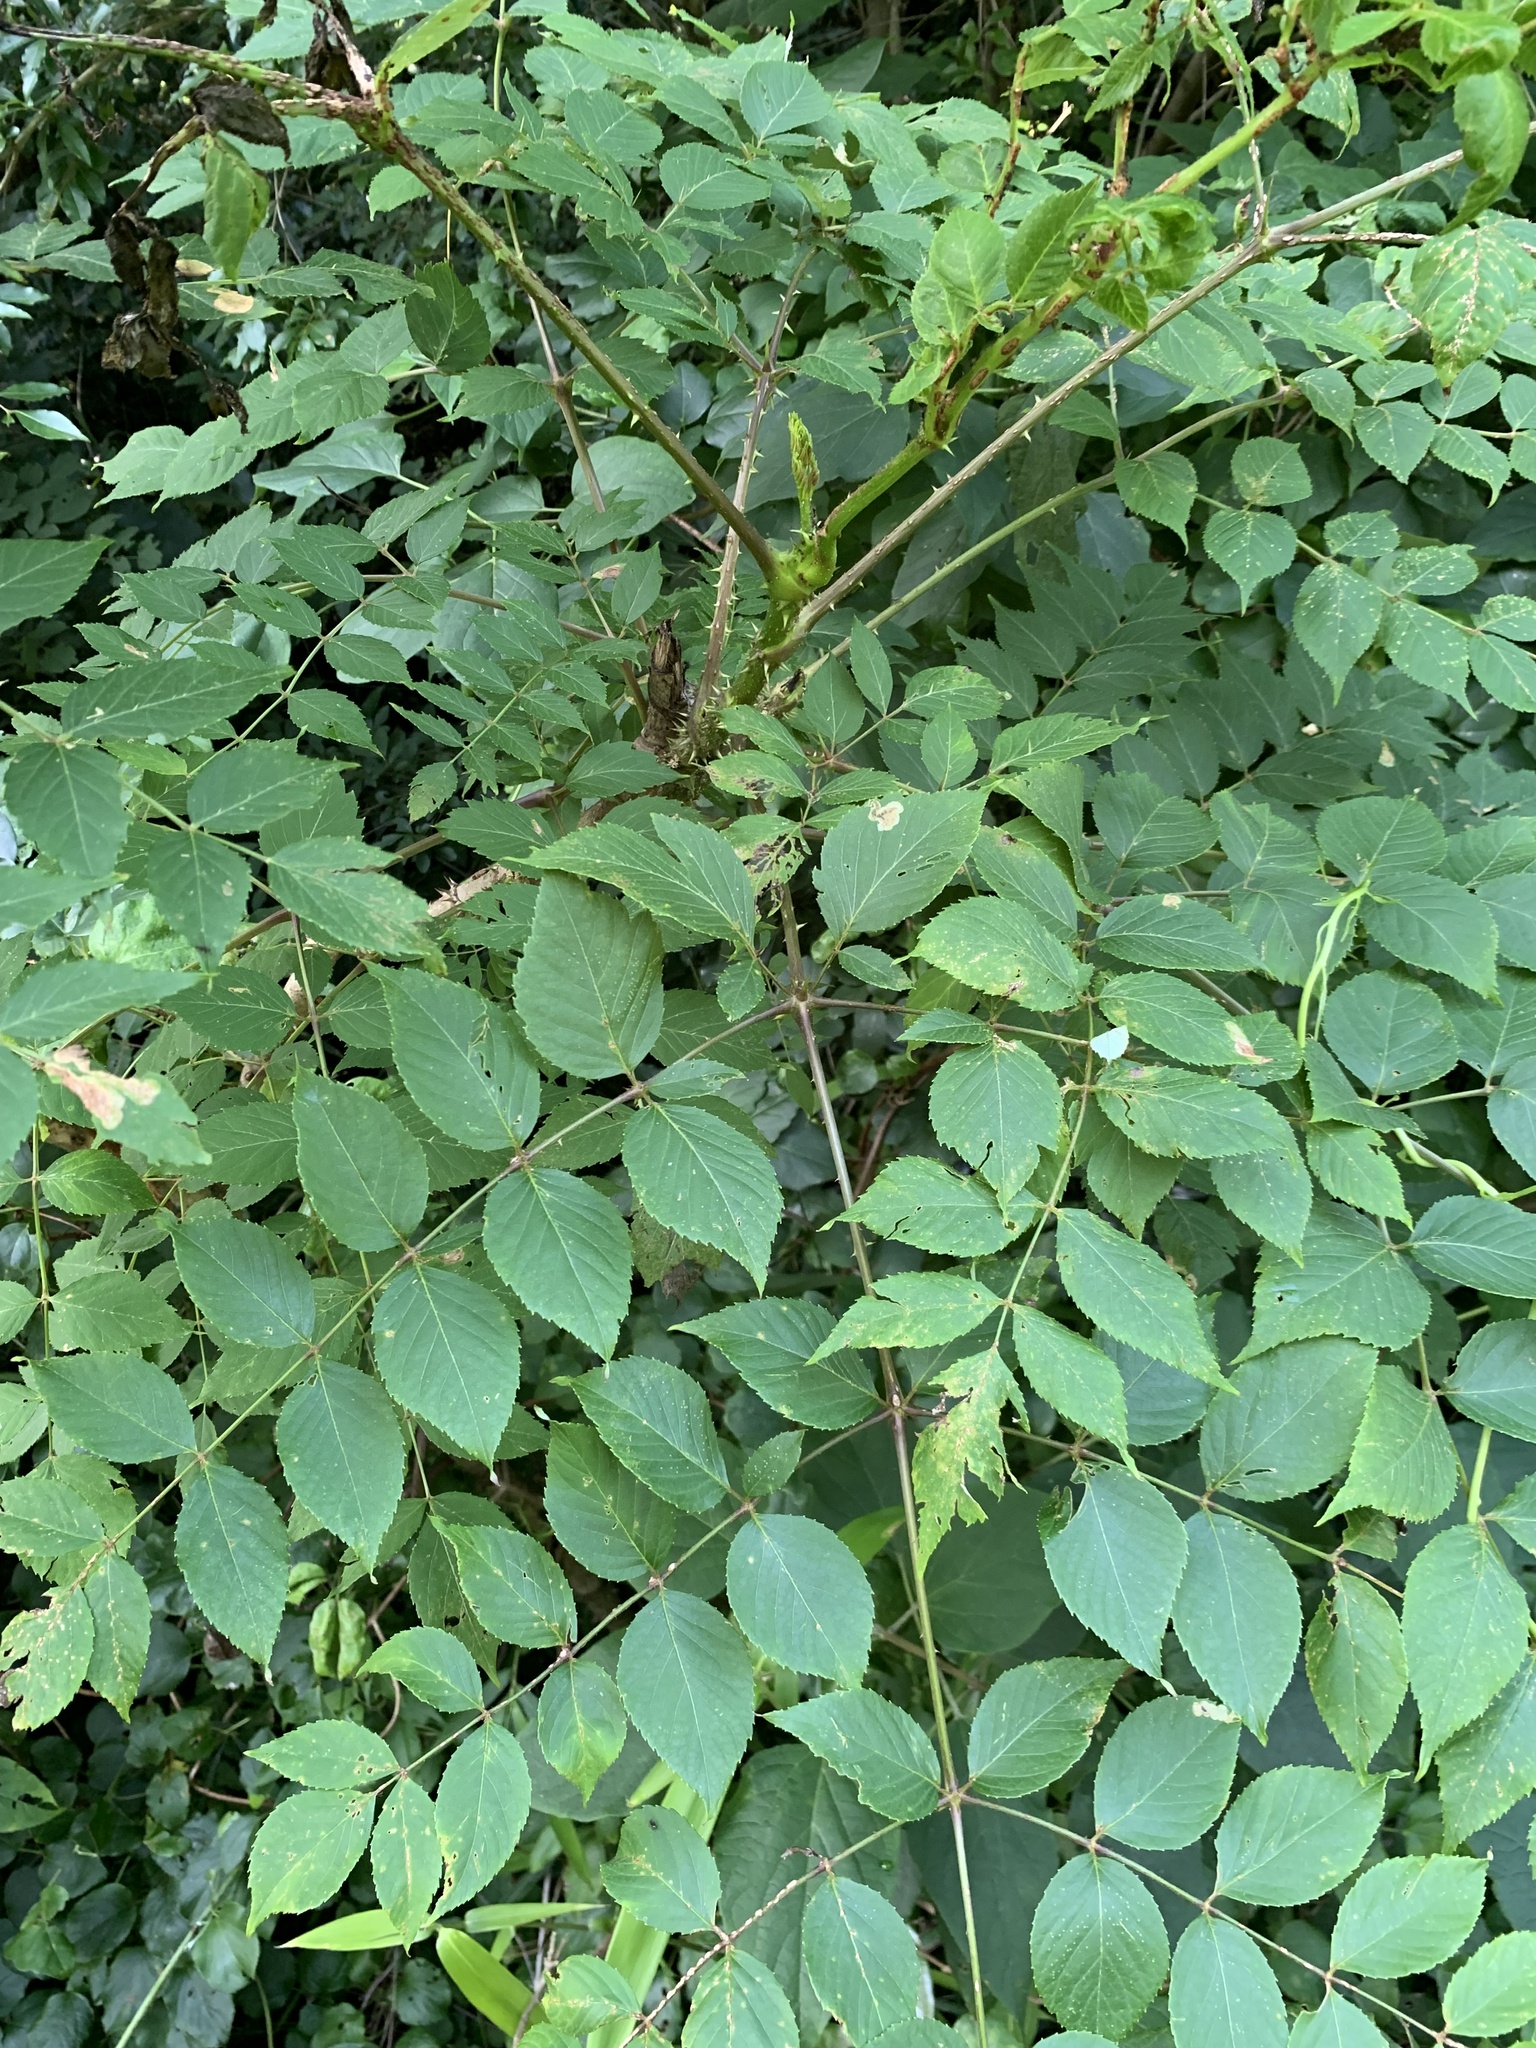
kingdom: Plantae
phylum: Tracheophyta
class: Magnoliopsida
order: Apiales
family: Araliaceae
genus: Aralia
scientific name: Aralia elata
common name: Japanese angelica-tree
